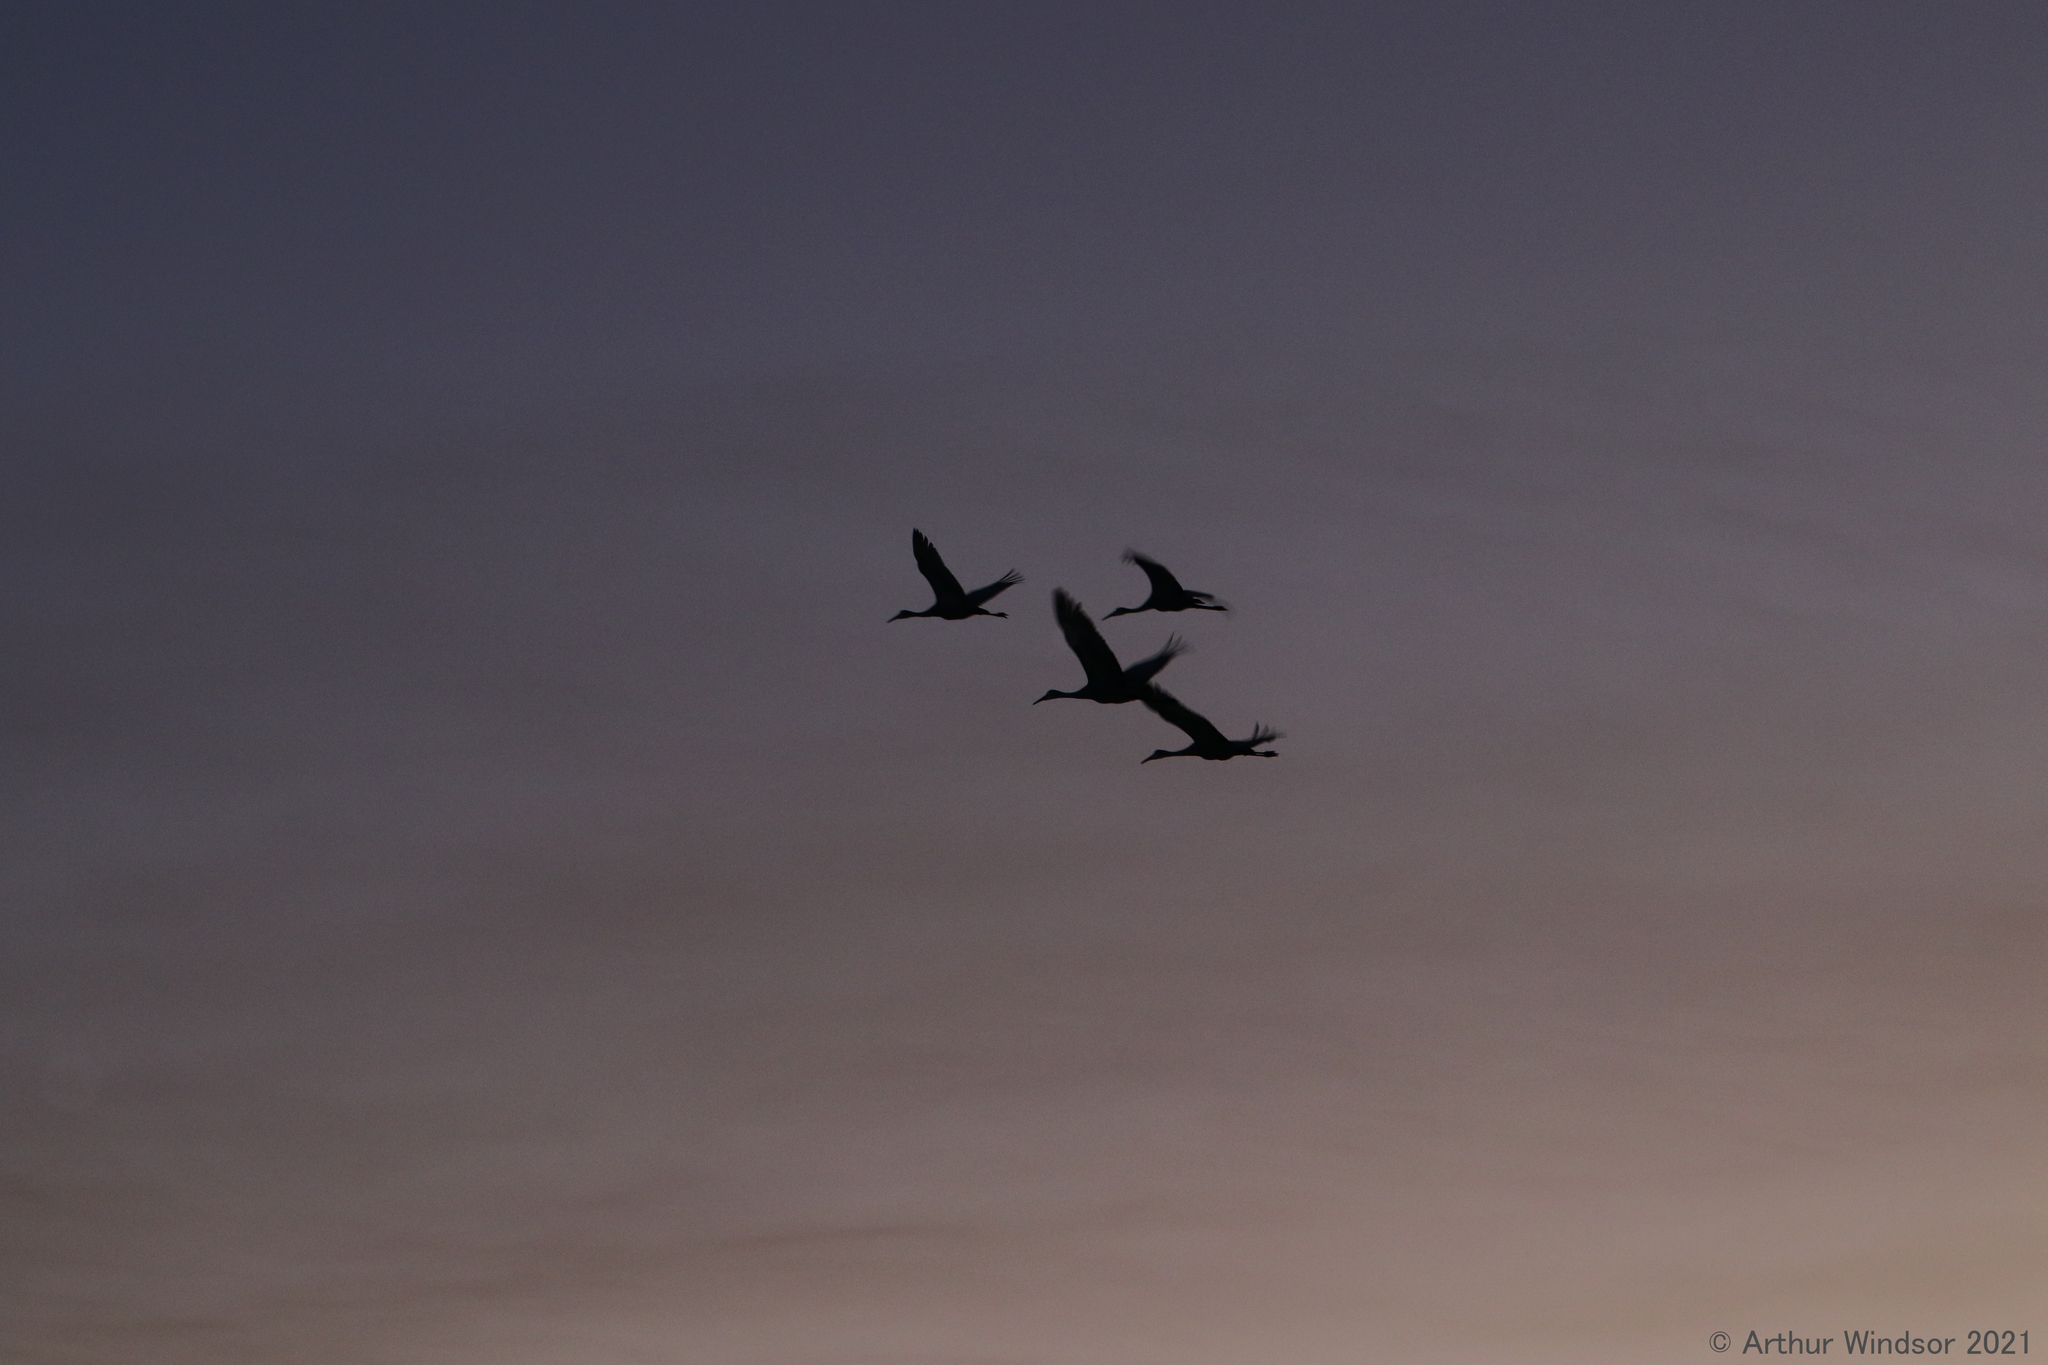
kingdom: Animalia
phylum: Chordata
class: Aves
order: Gruiformes
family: Gruidae
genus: Grus
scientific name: Grus canadensis
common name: Sandhill crane
